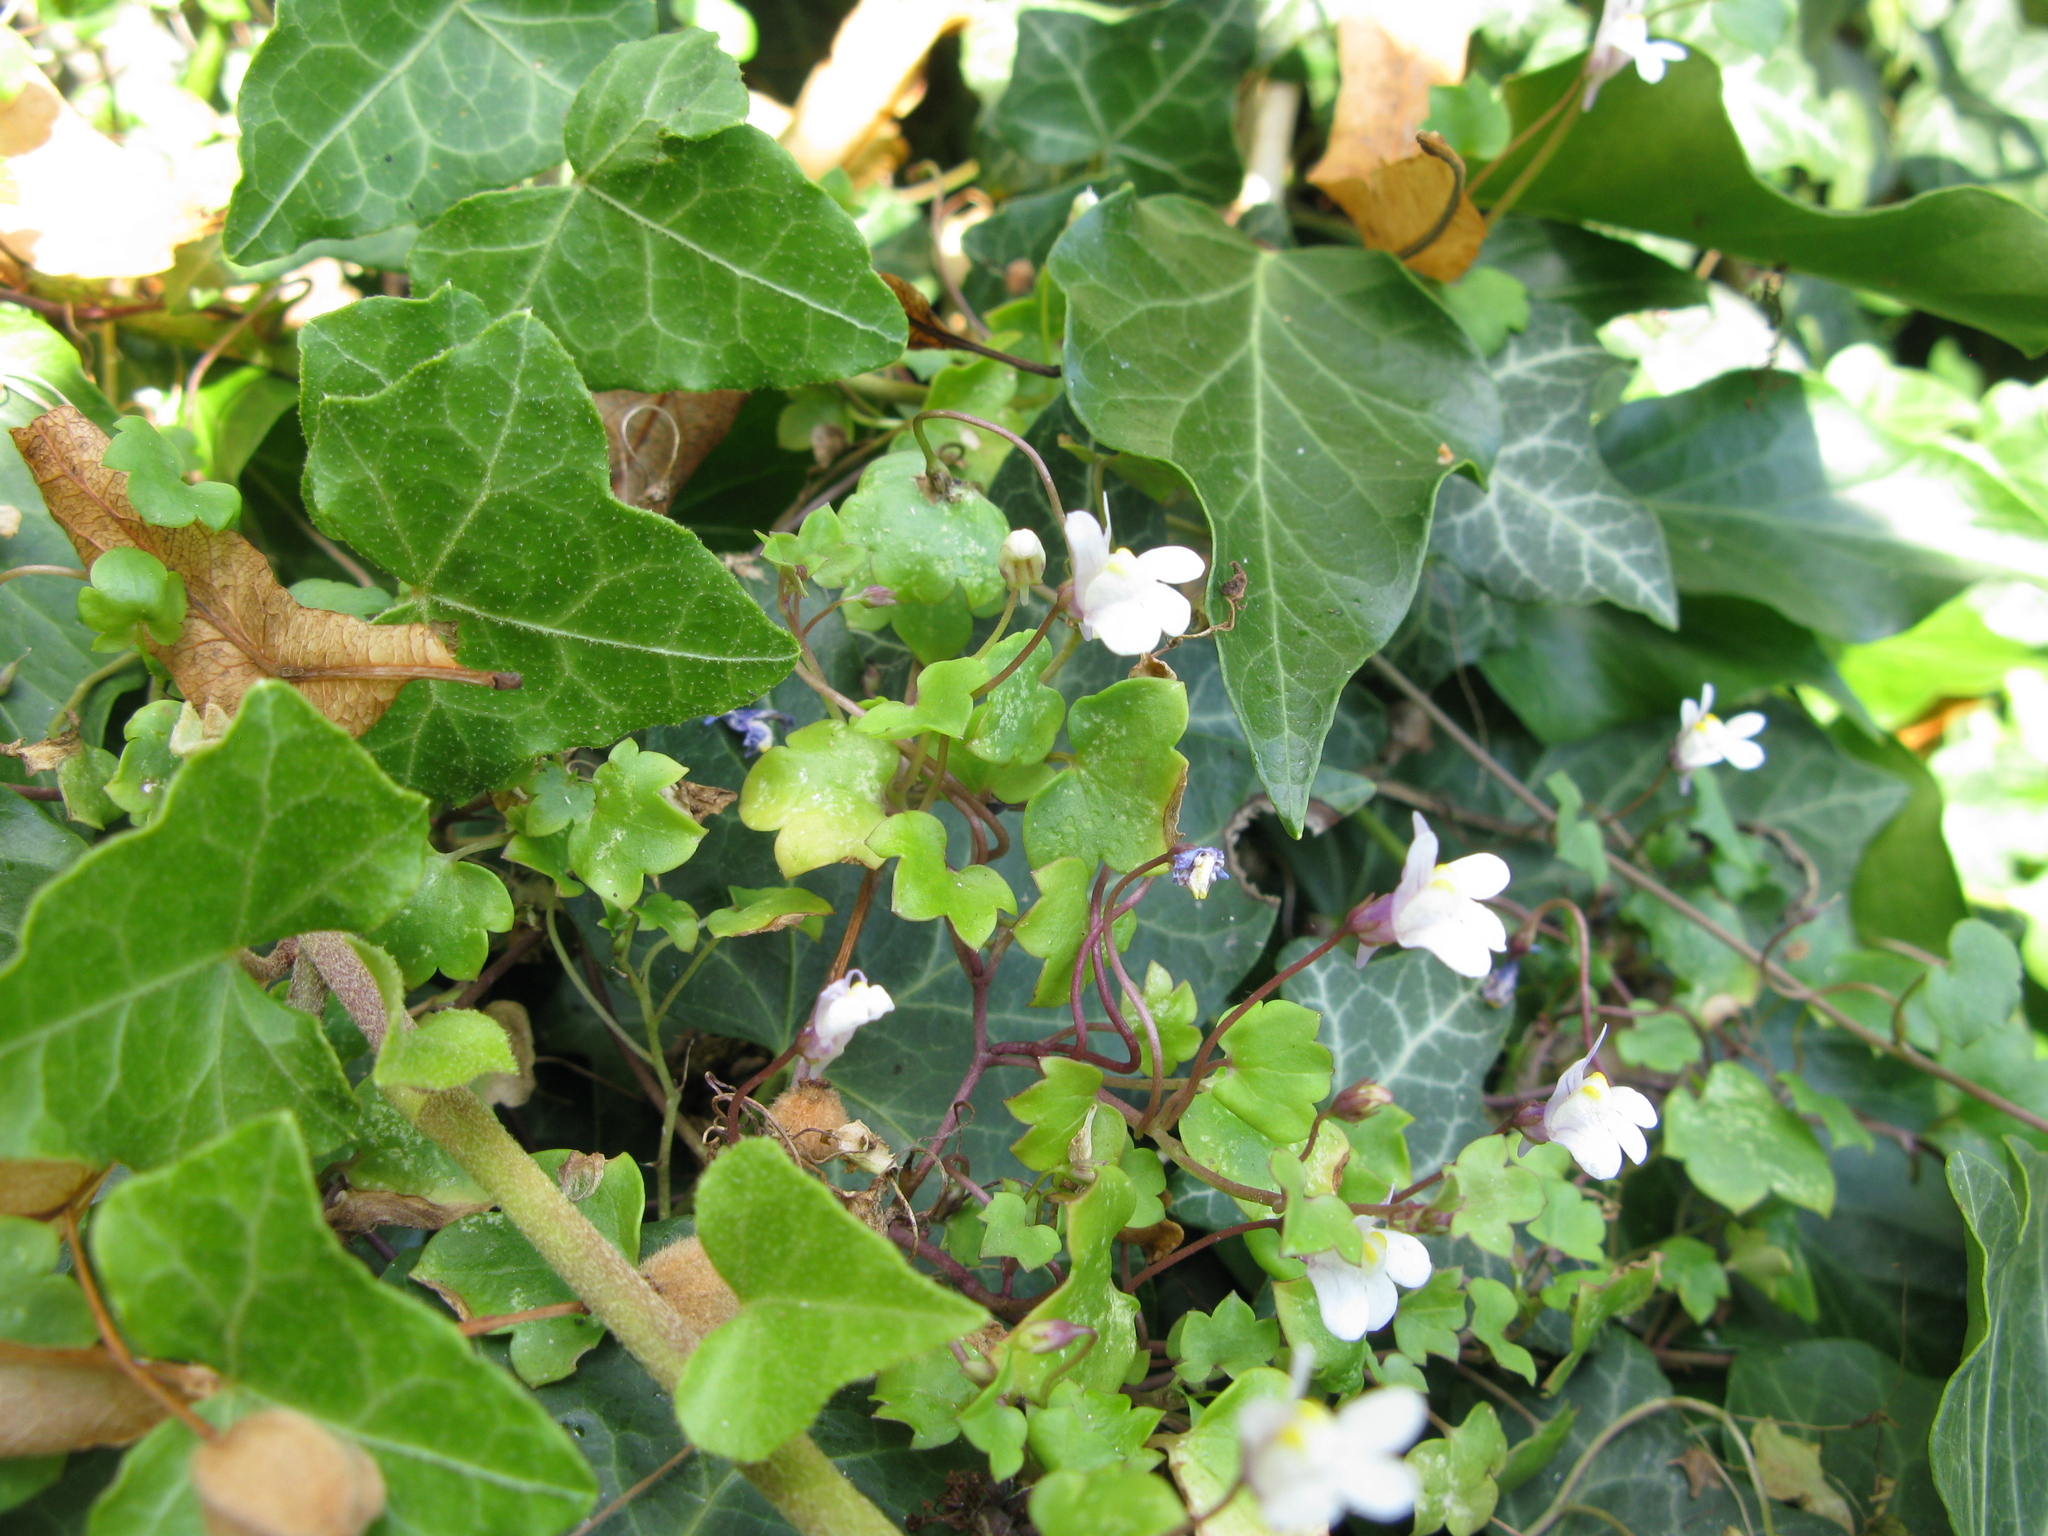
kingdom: Plantae
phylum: Tracheophyta
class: Magnoliopsida
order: Lamiales
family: Plantaginaceae
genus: Cymbalaria
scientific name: Cymbalaria muralis
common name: Ivy-leaved toadflax
